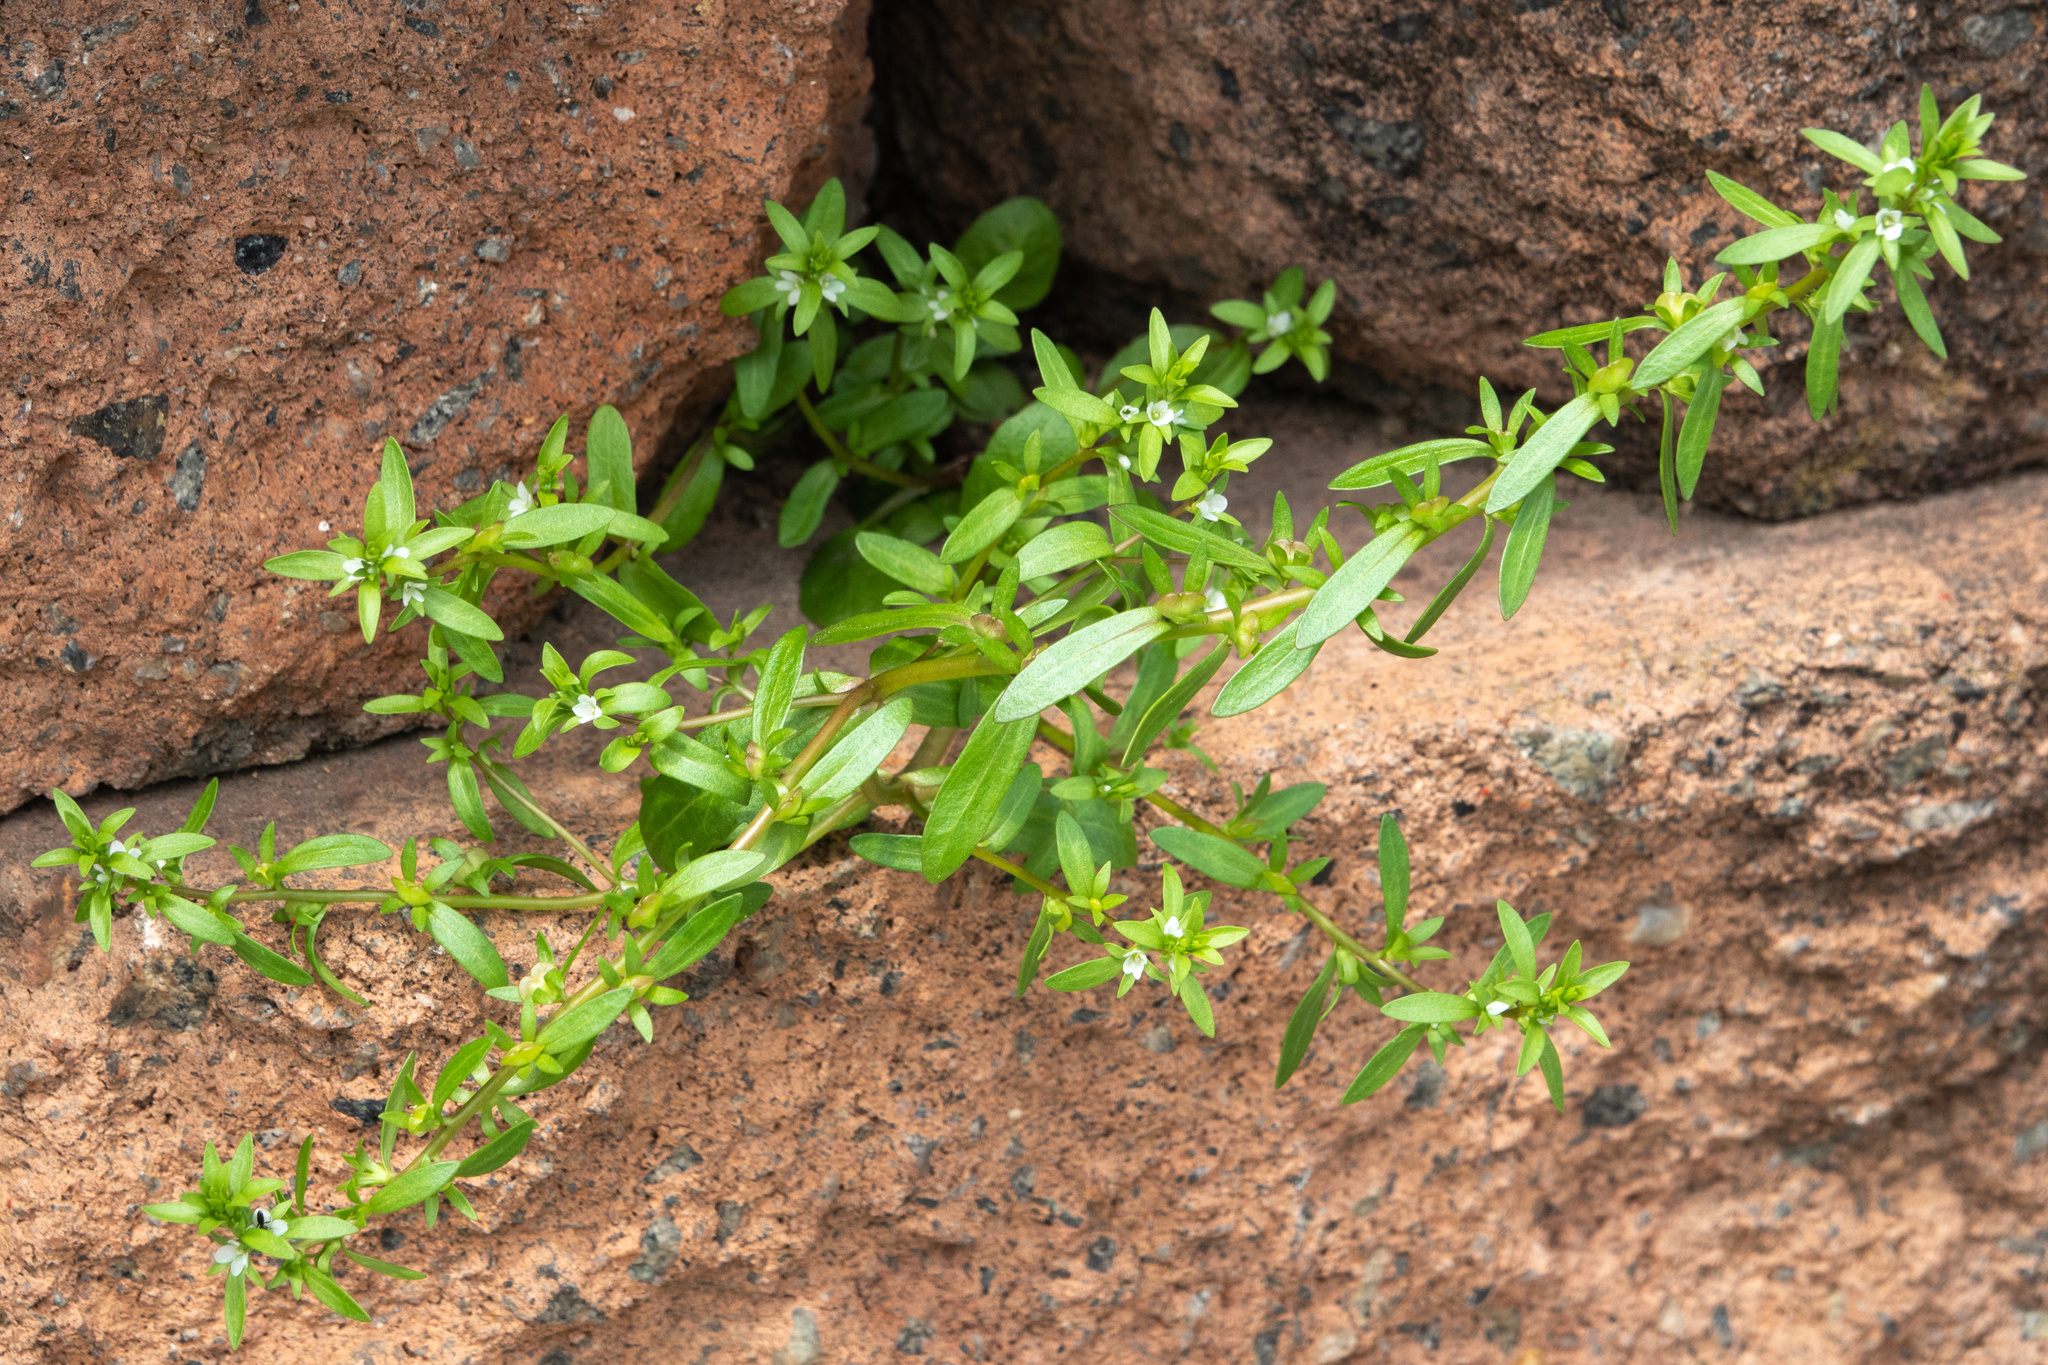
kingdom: Plantae
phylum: Tracheophyta
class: Magnoliopsida
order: Lamiales
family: Plantaginaceae
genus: Veronica
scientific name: Veronica peregrina
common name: Neckweed
